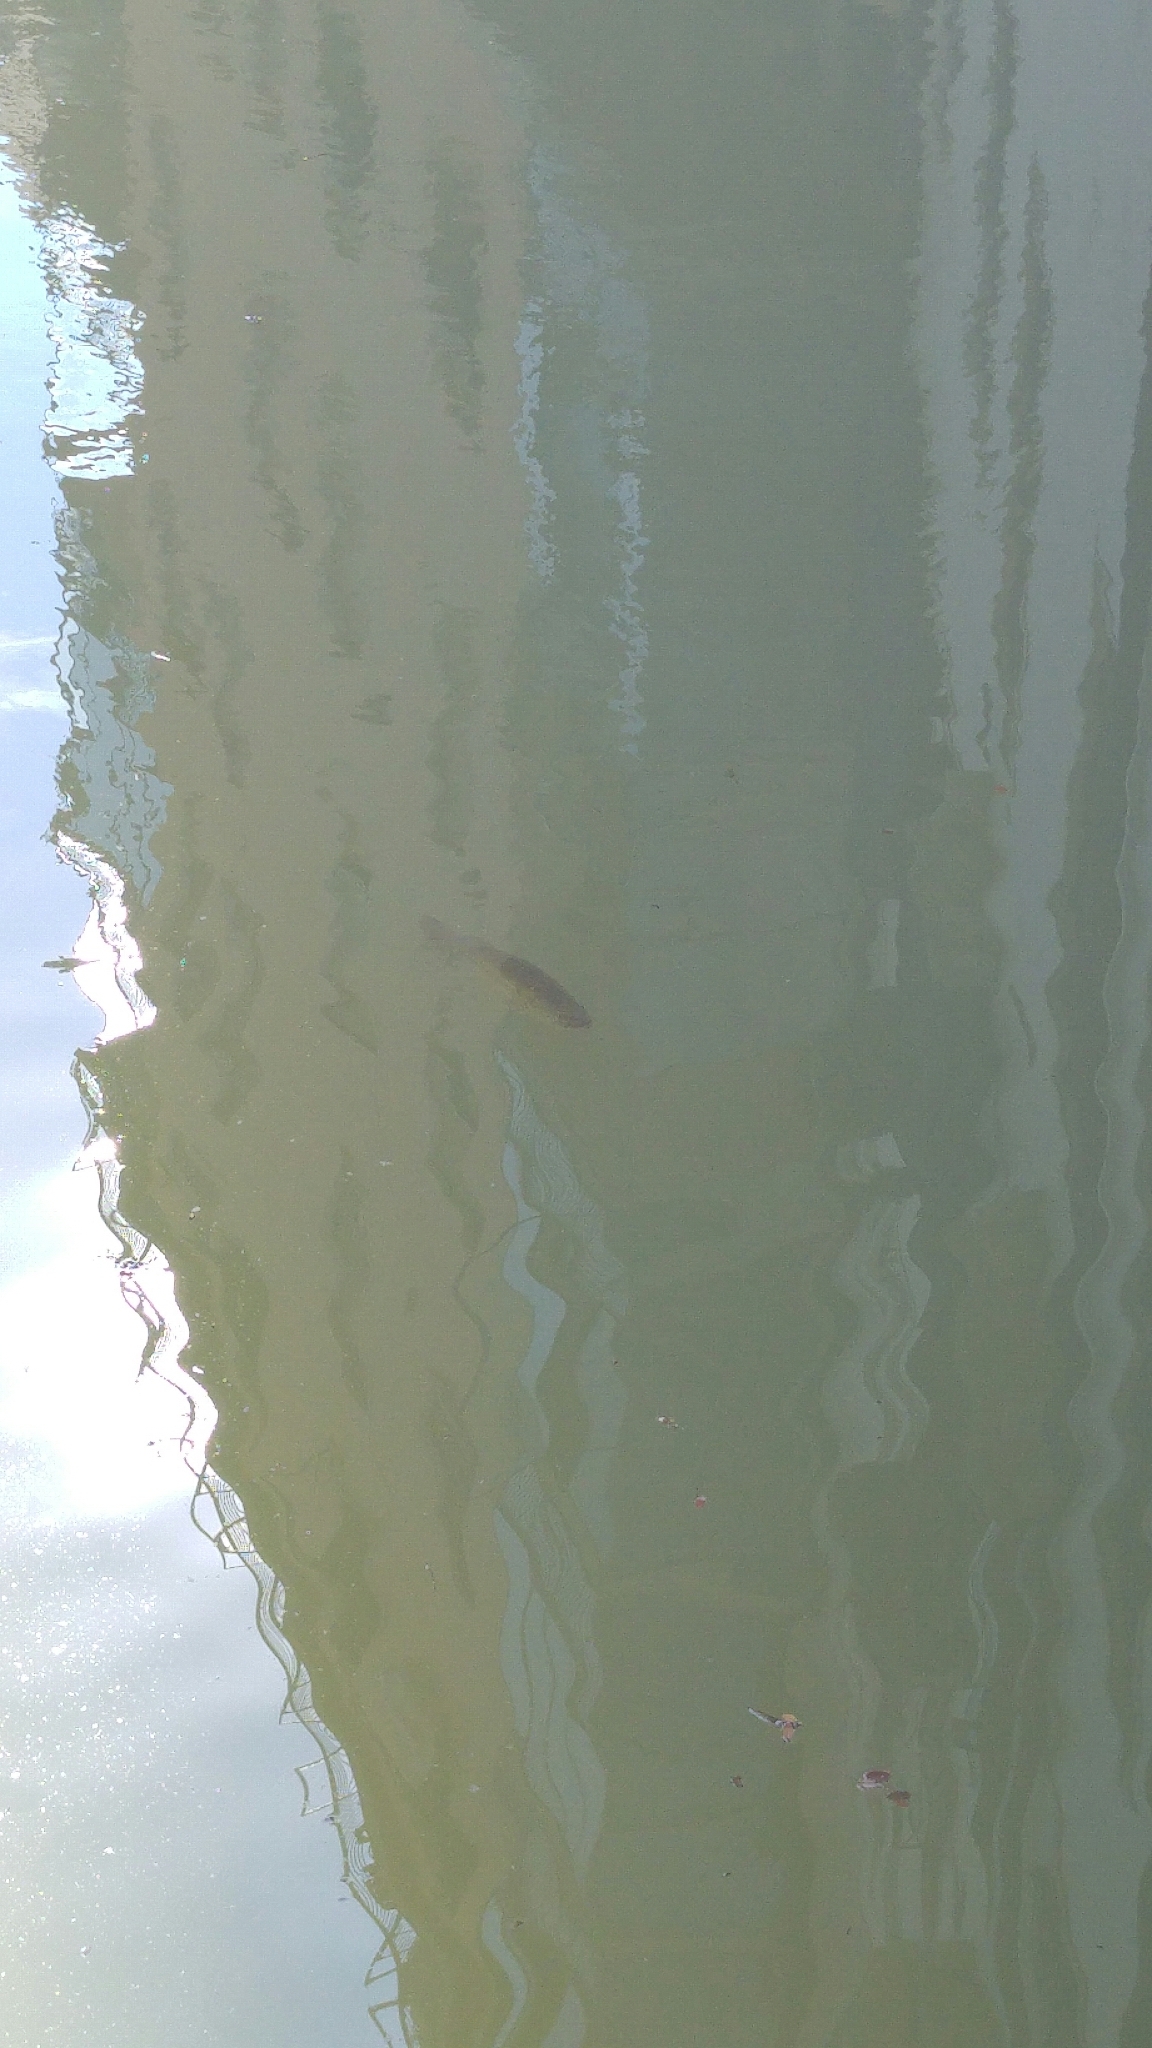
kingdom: Animalia
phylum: Chordata
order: Perciformes
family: Centrarchidae
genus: Micropterus
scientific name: Micropterus
